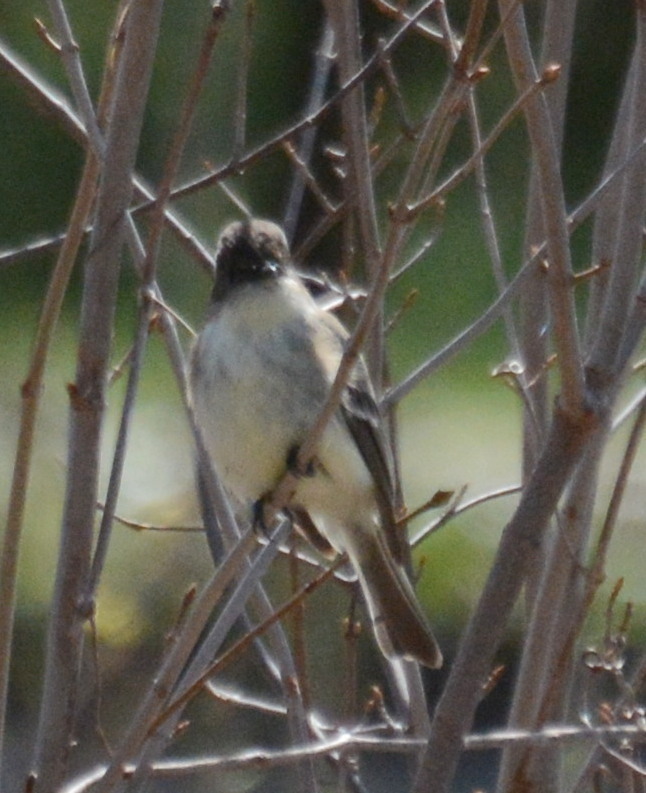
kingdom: Animalia
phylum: Chordata
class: Aves
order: Passeriformes
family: Tyrannidae
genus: Sayornis
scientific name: Sayornis phoebe
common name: Eastern phoebe
